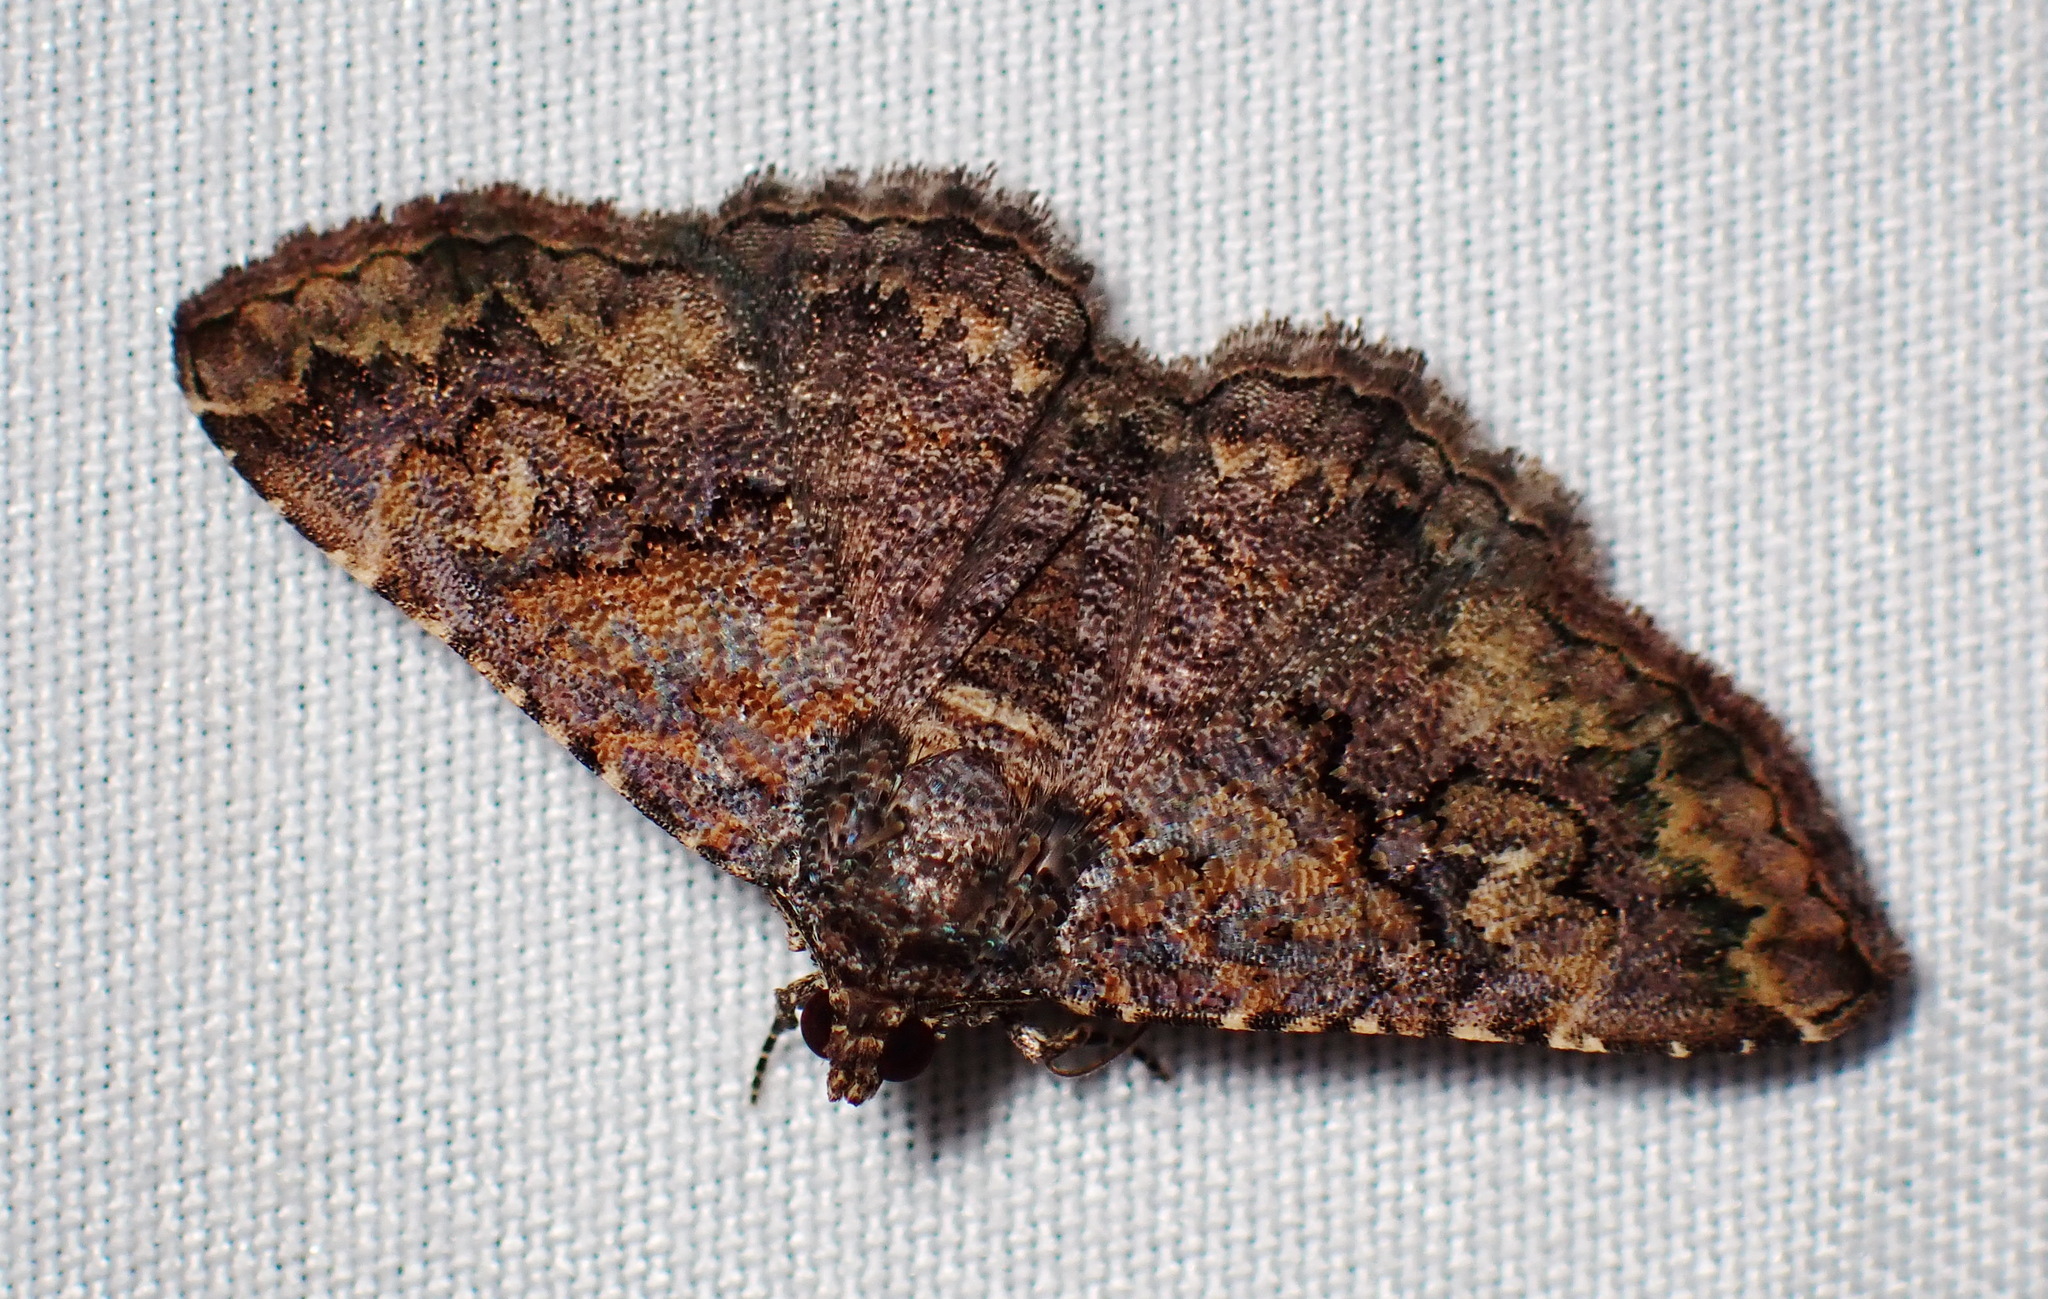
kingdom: Animalia
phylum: Arthropoda
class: Insecta
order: Lepidoptera
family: Erebidae
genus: Toxonprucha
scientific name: Toxonprucha excavata
